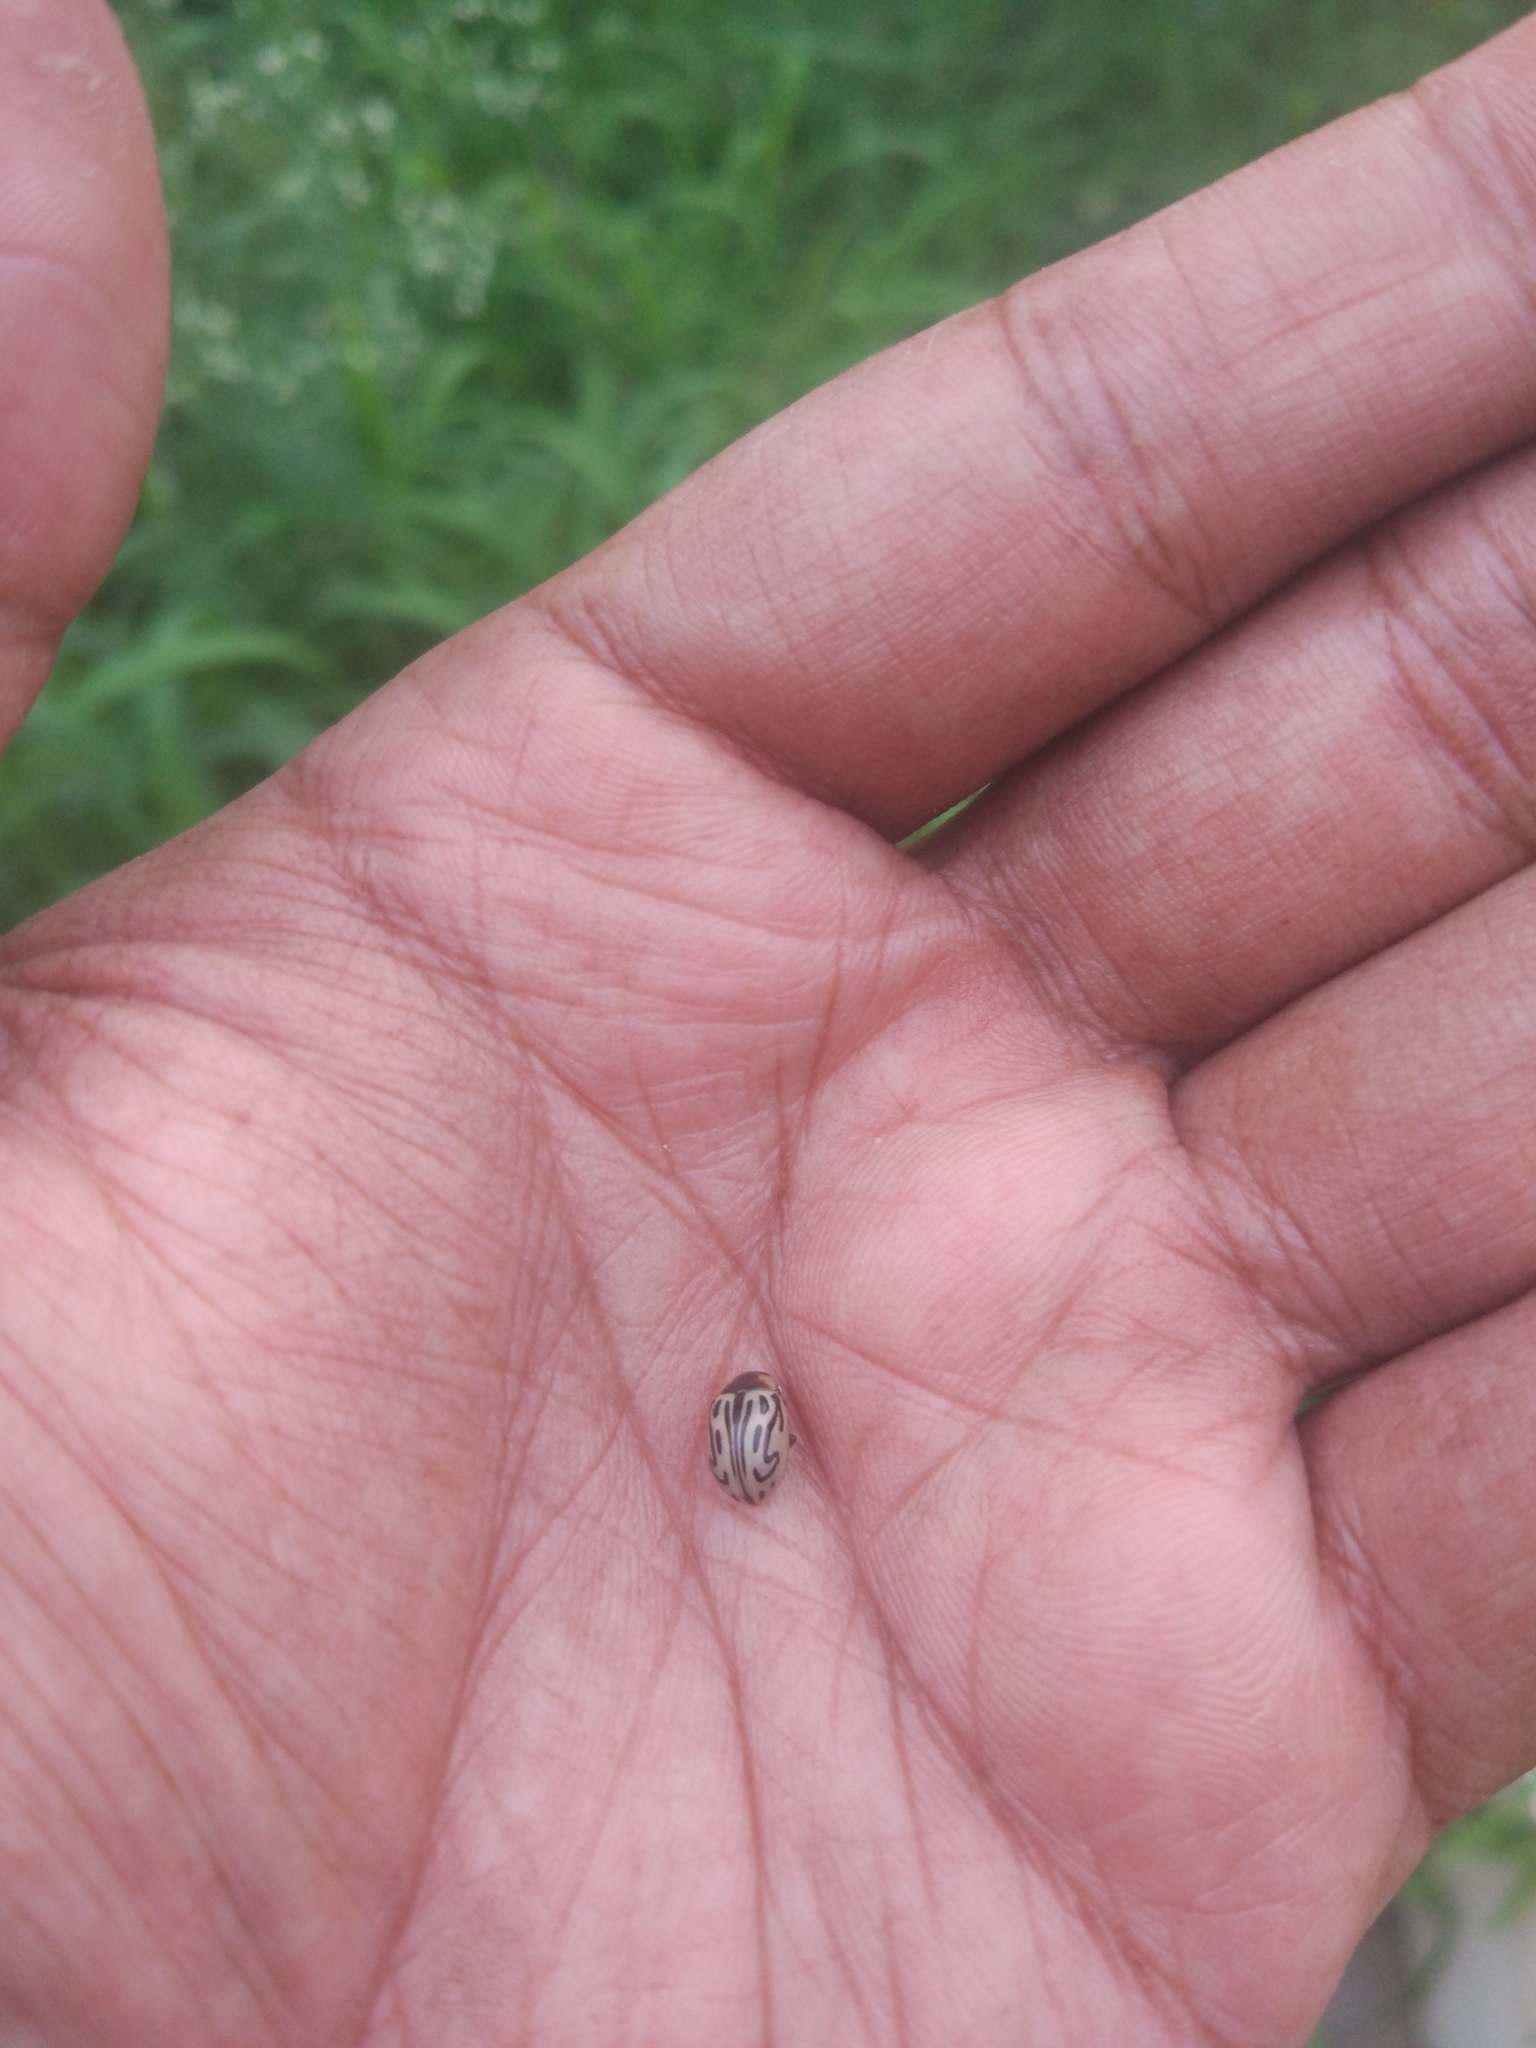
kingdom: Animalia
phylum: Arthropoda
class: Insecta
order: Coleoptera
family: Chrysomelidae
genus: Calligrapha
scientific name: Calligrapha
